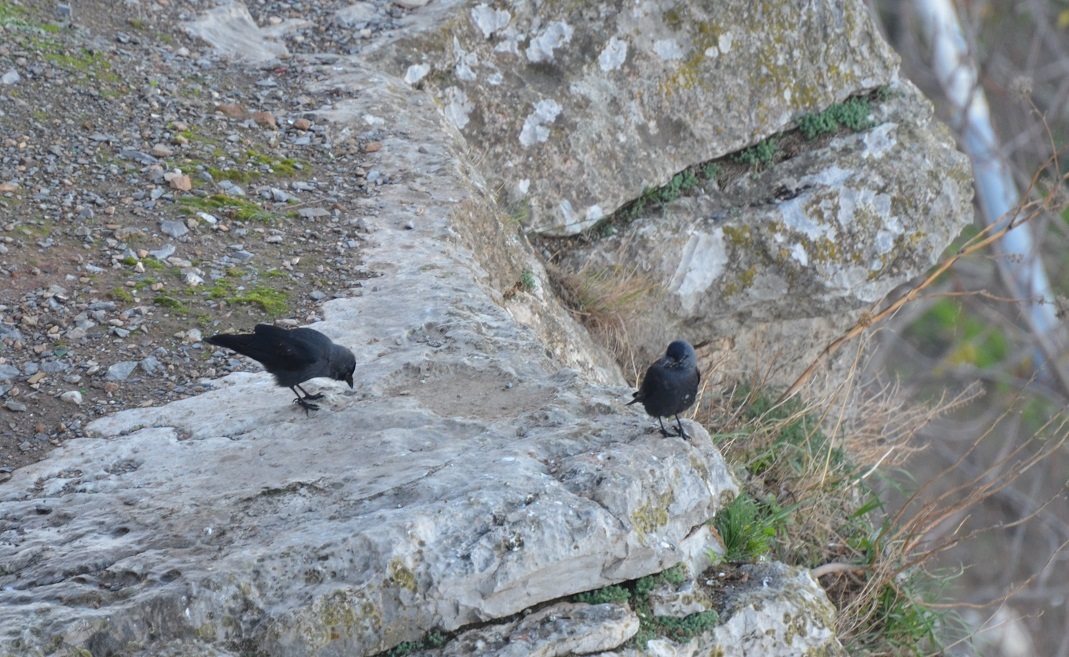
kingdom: Animalia
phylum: Chordata
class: Aves
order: Passeriformes
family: Corvidae
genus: Coloeus
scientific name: Coloeus monedula
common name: Western jackdaw
